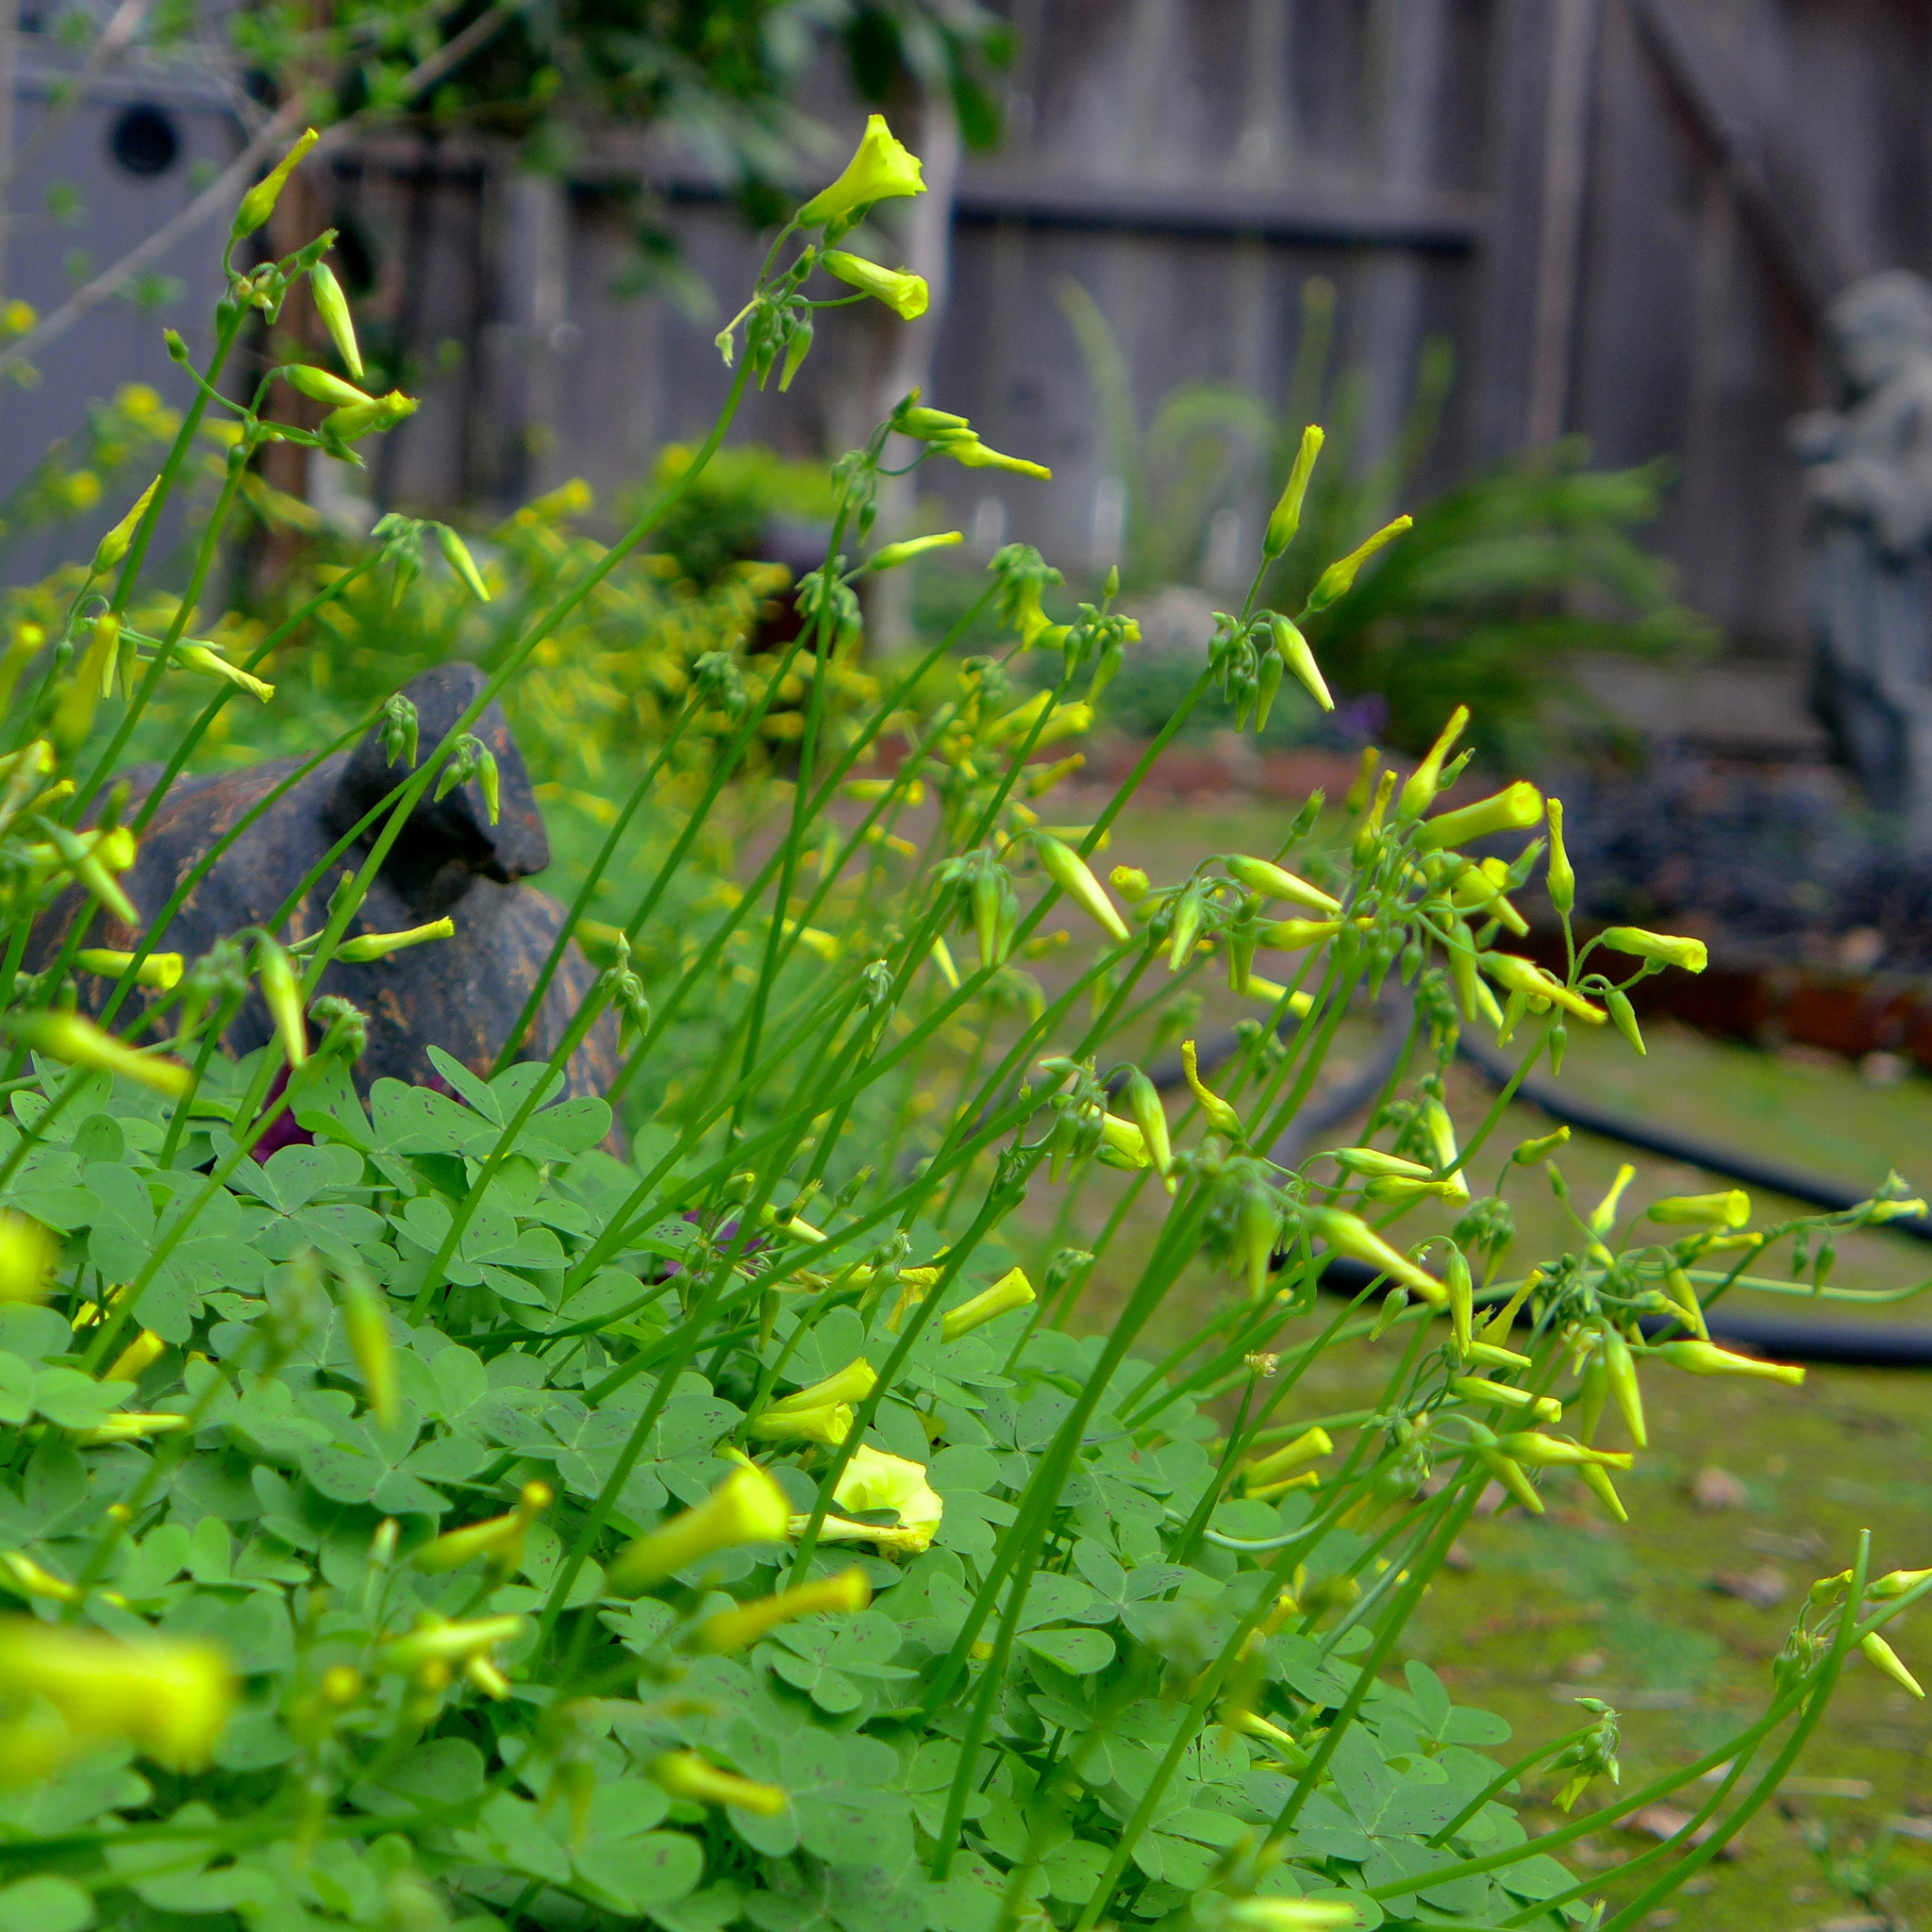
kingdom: Plantae
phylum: Tracheophyta
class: Magnoliopsida
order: Oxalidales
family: Oxalidaceae
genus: Oxalis
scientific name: Oxalis pes-caprae
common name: Bermuda-buttercup
